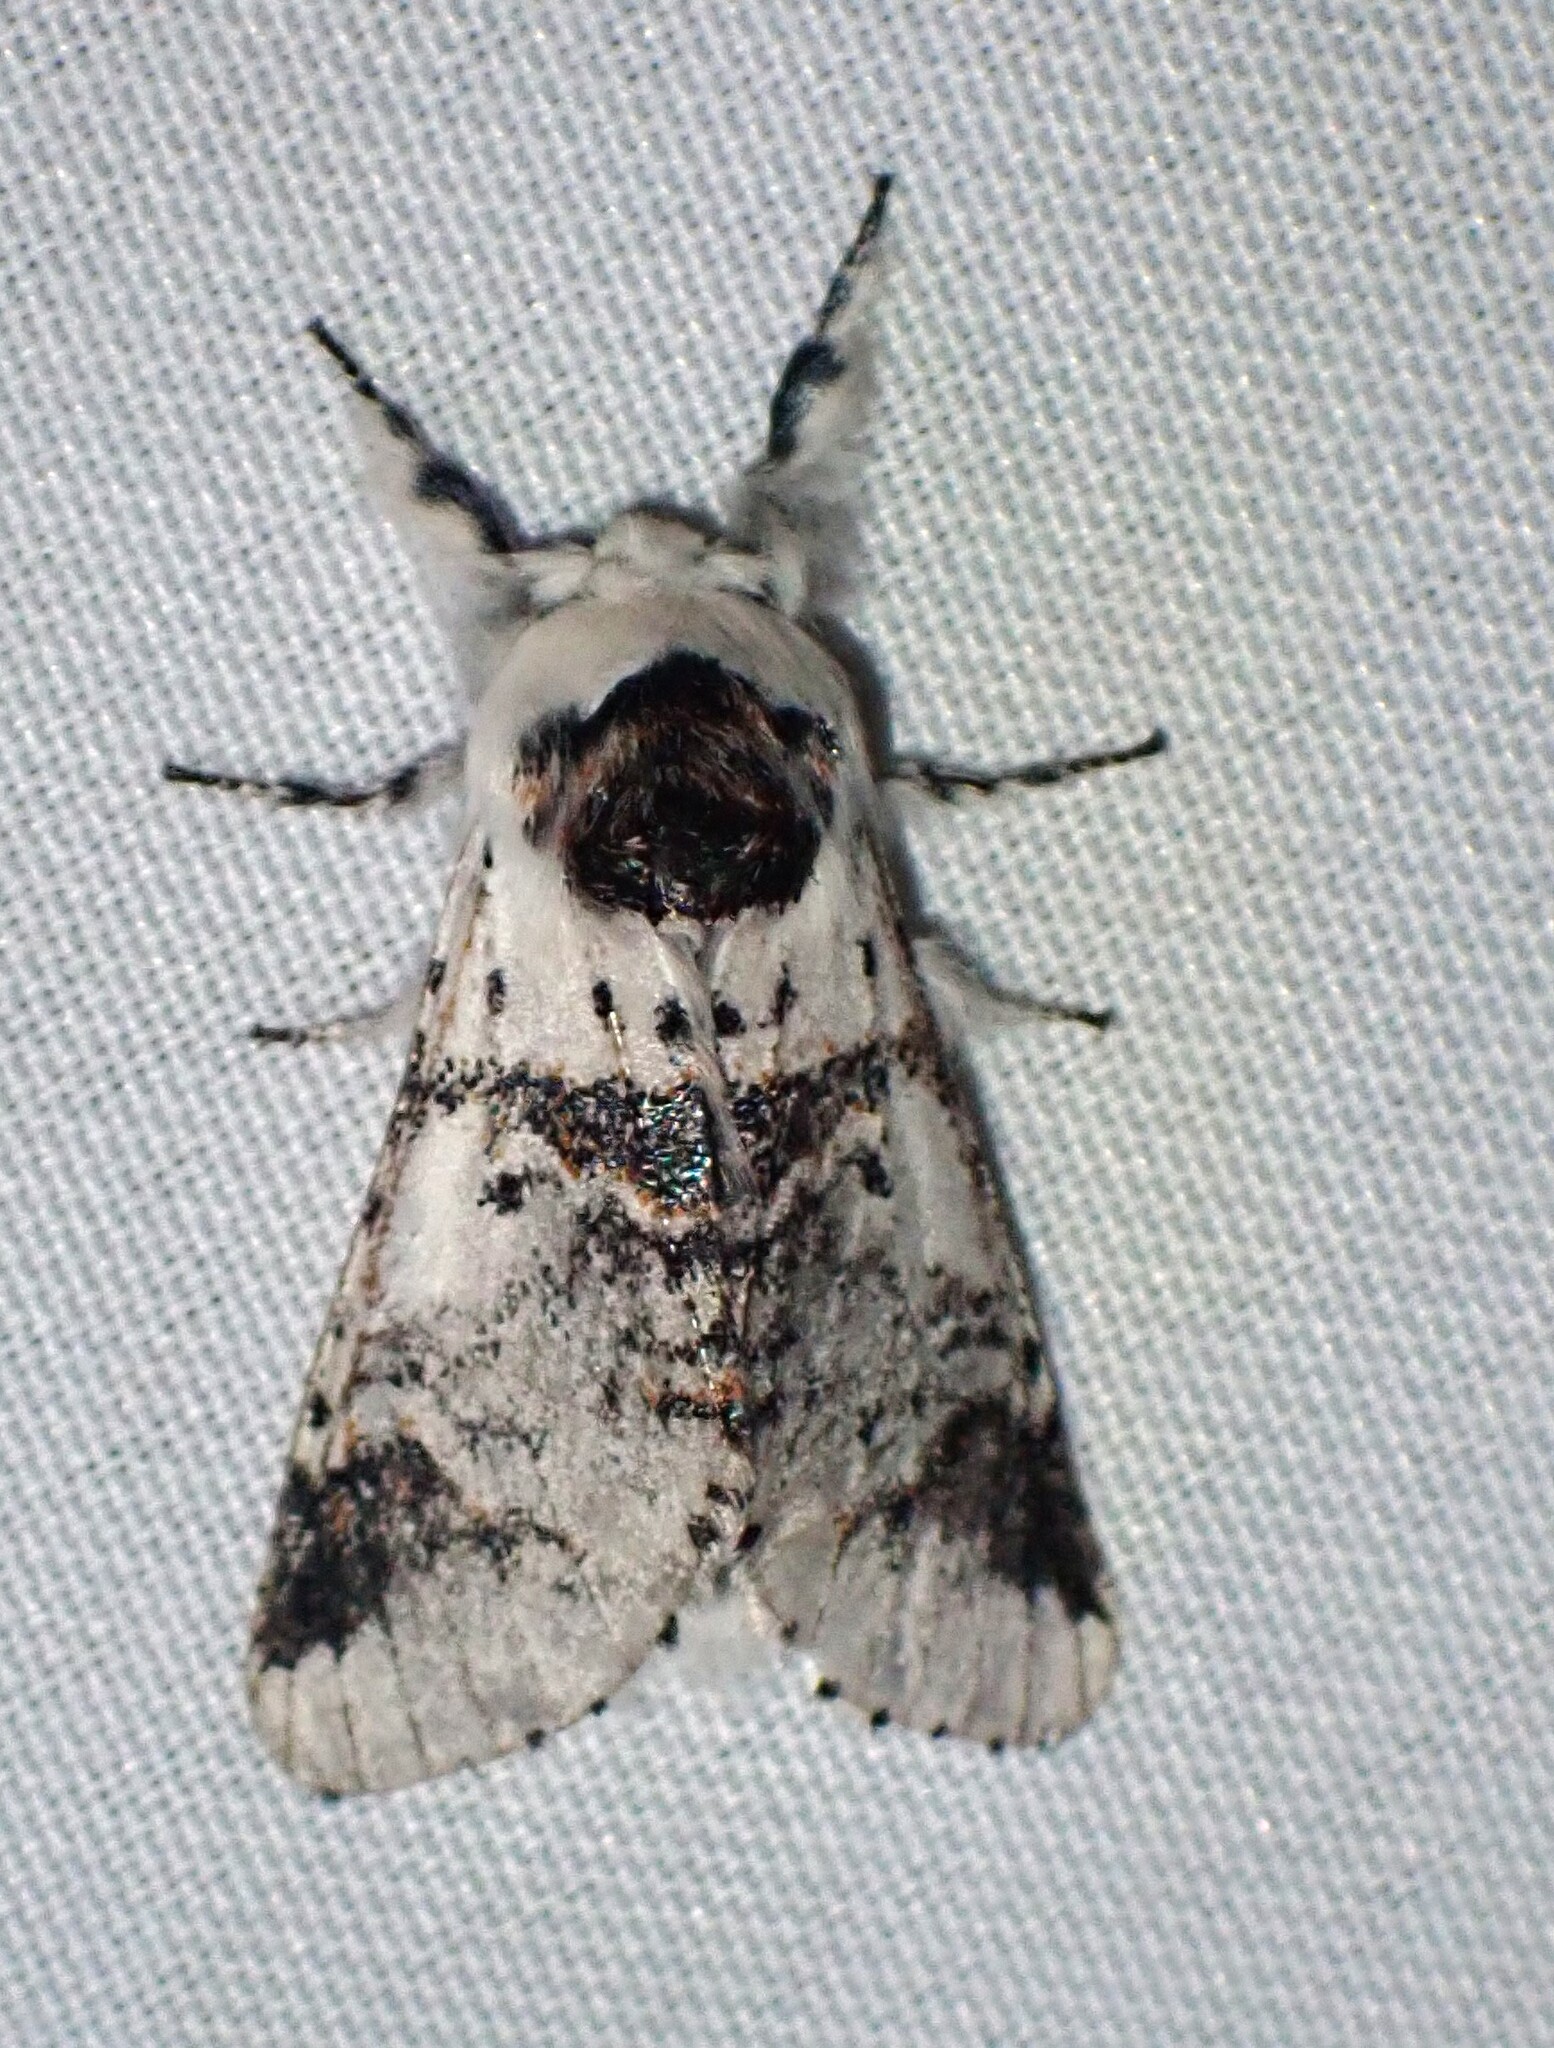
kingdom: Animalia
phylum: Arthropoda
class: Insecta
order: Lepidoptera
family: Notodontidae
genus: Furcula
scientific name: Furcula scolopendrina
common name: Zigzag furcula moth
